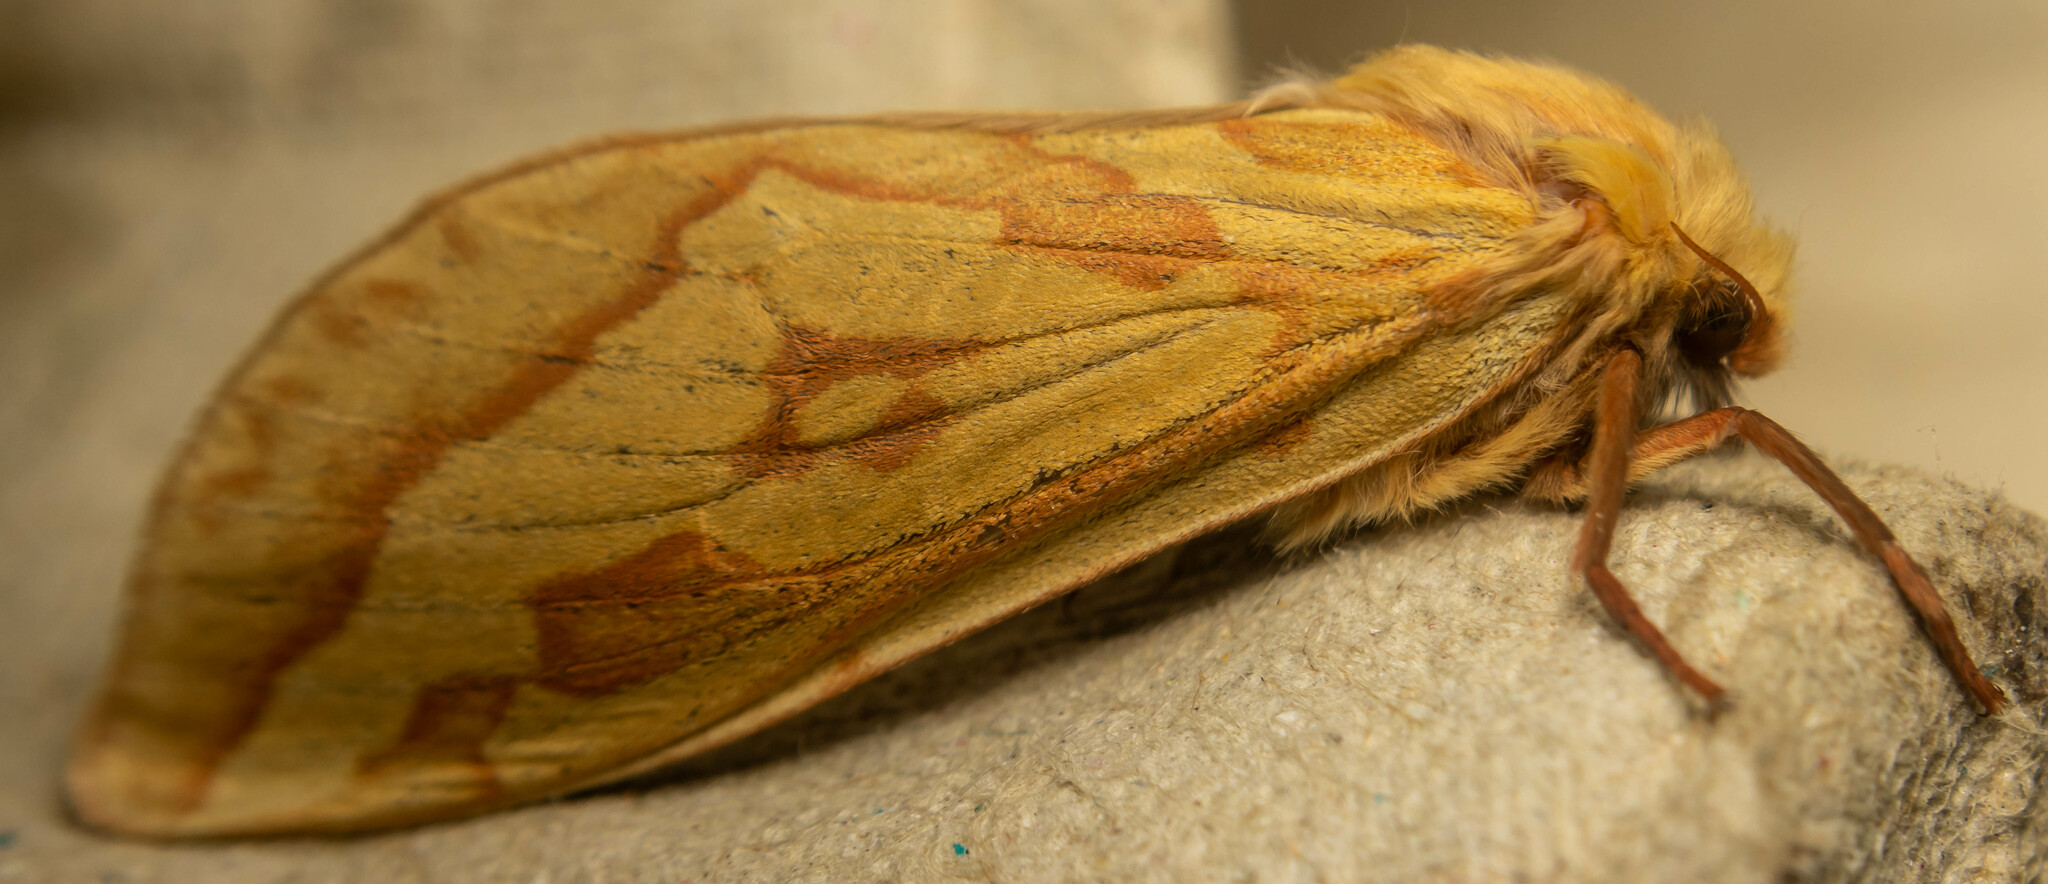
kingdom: Animalia
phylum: Arthropoda
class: Insecta
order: Lepidoptera
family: Hepialidae
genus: Hepialus
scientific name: Hepialus humuli
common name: Ghost moth
